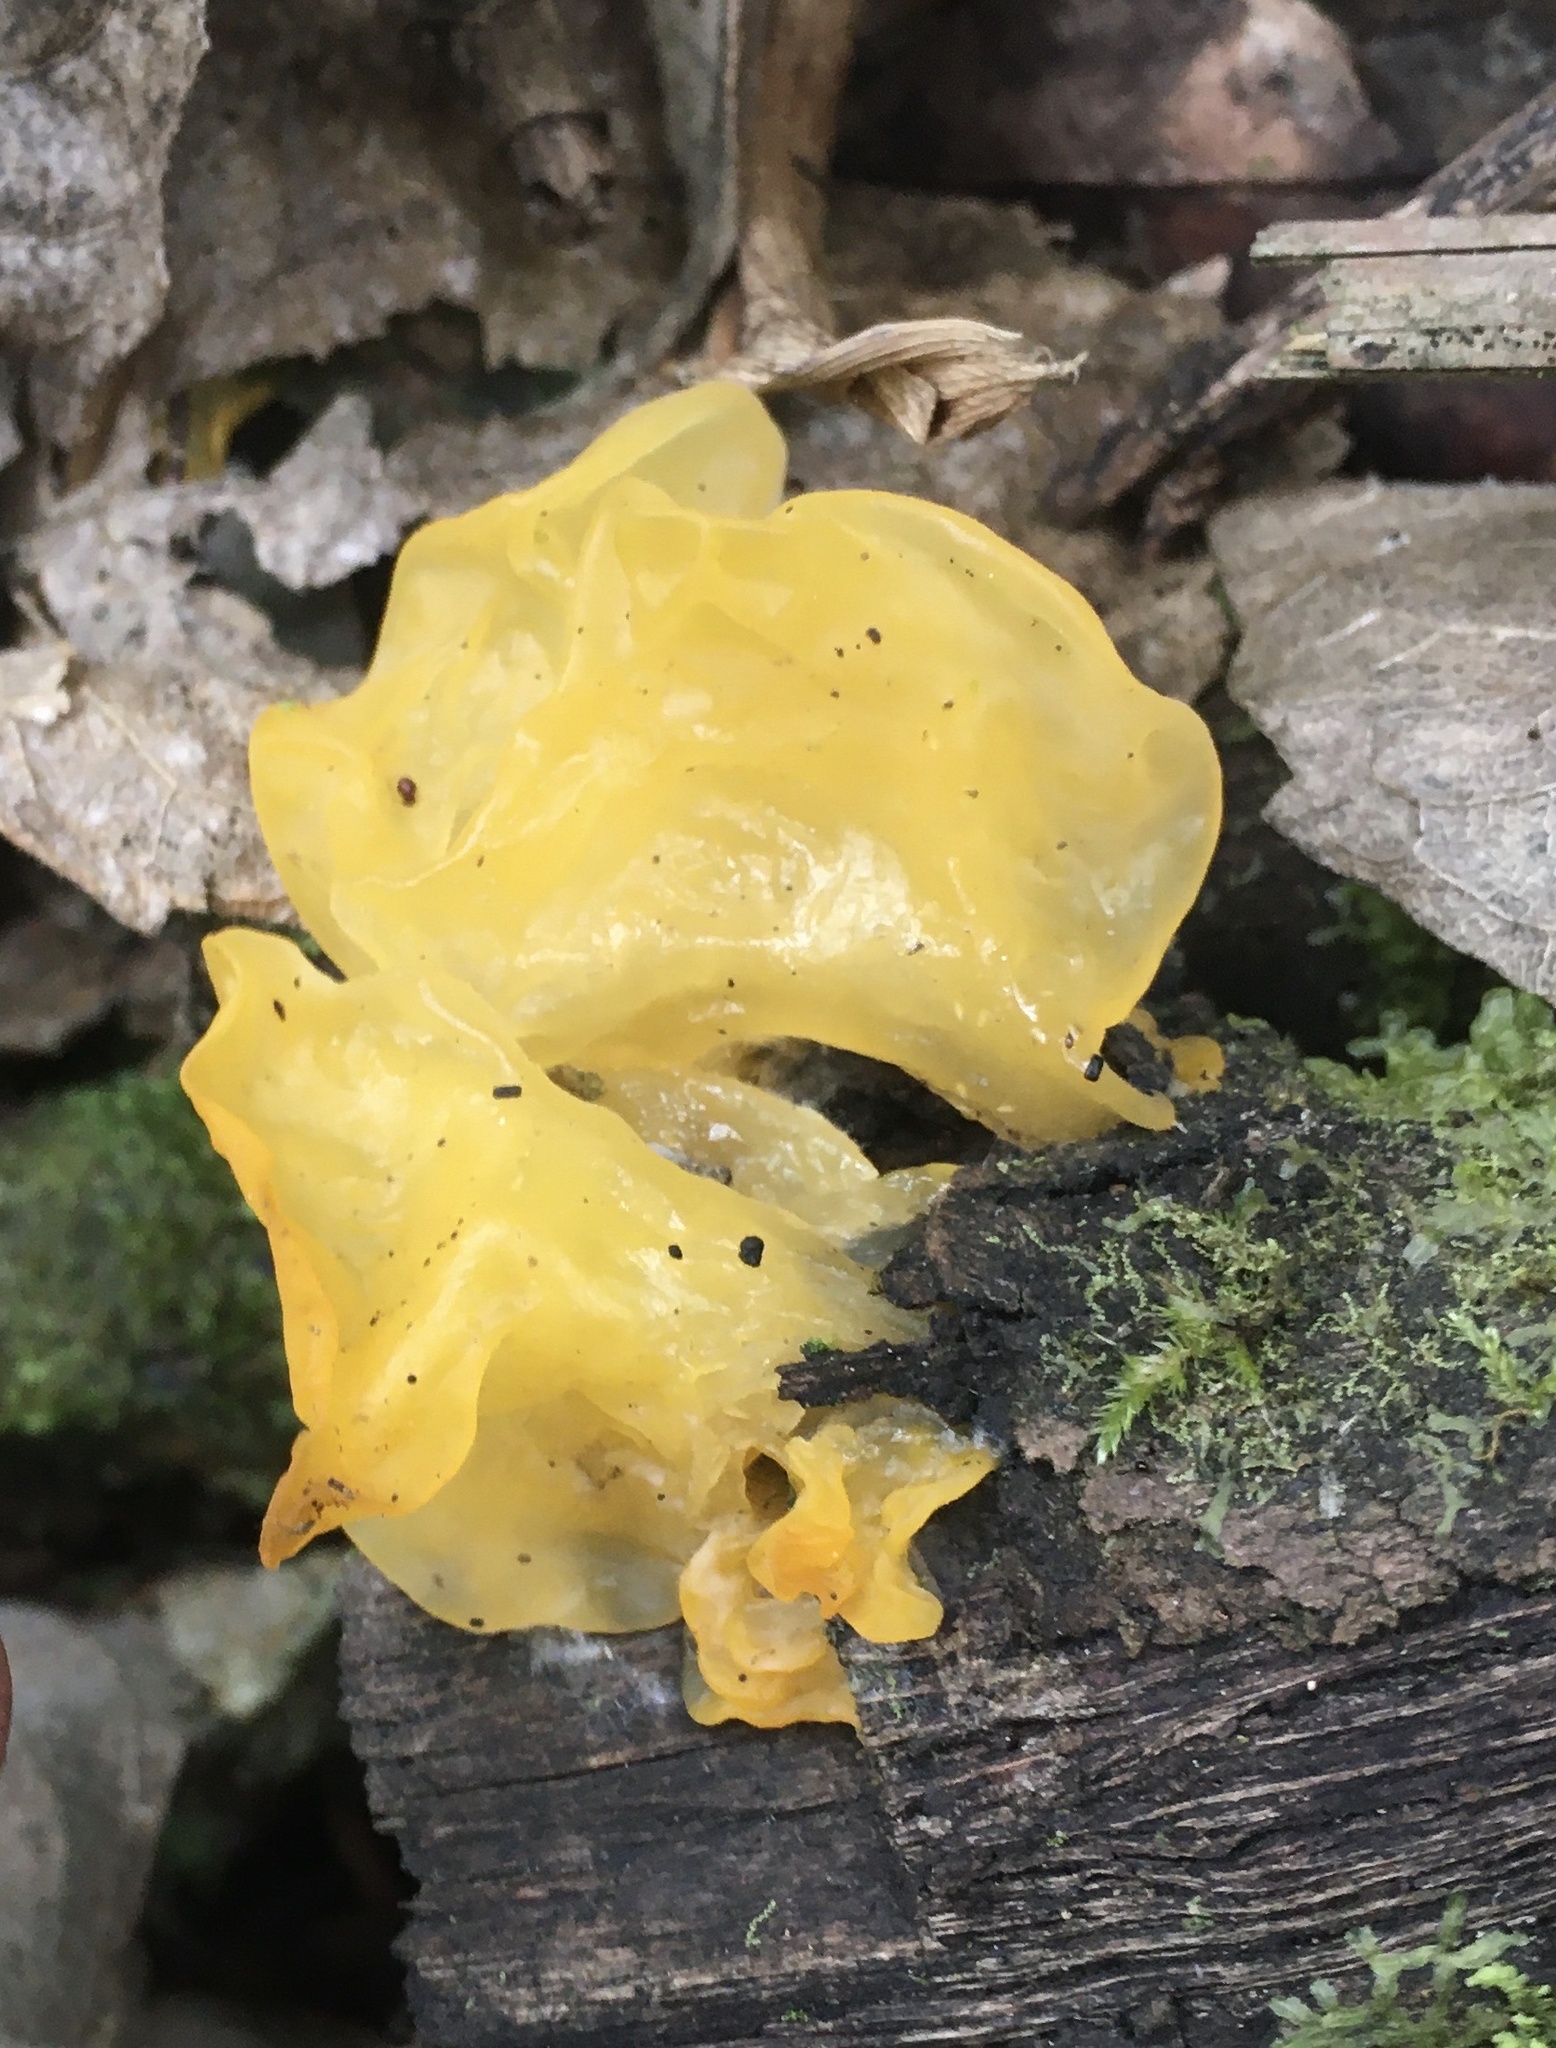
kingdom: Fungi
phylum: Basidiomycota
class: Tremellomycetes
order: Tremellales
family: Tremellaceae
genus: Tremella
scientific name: Tremella mesenterica
